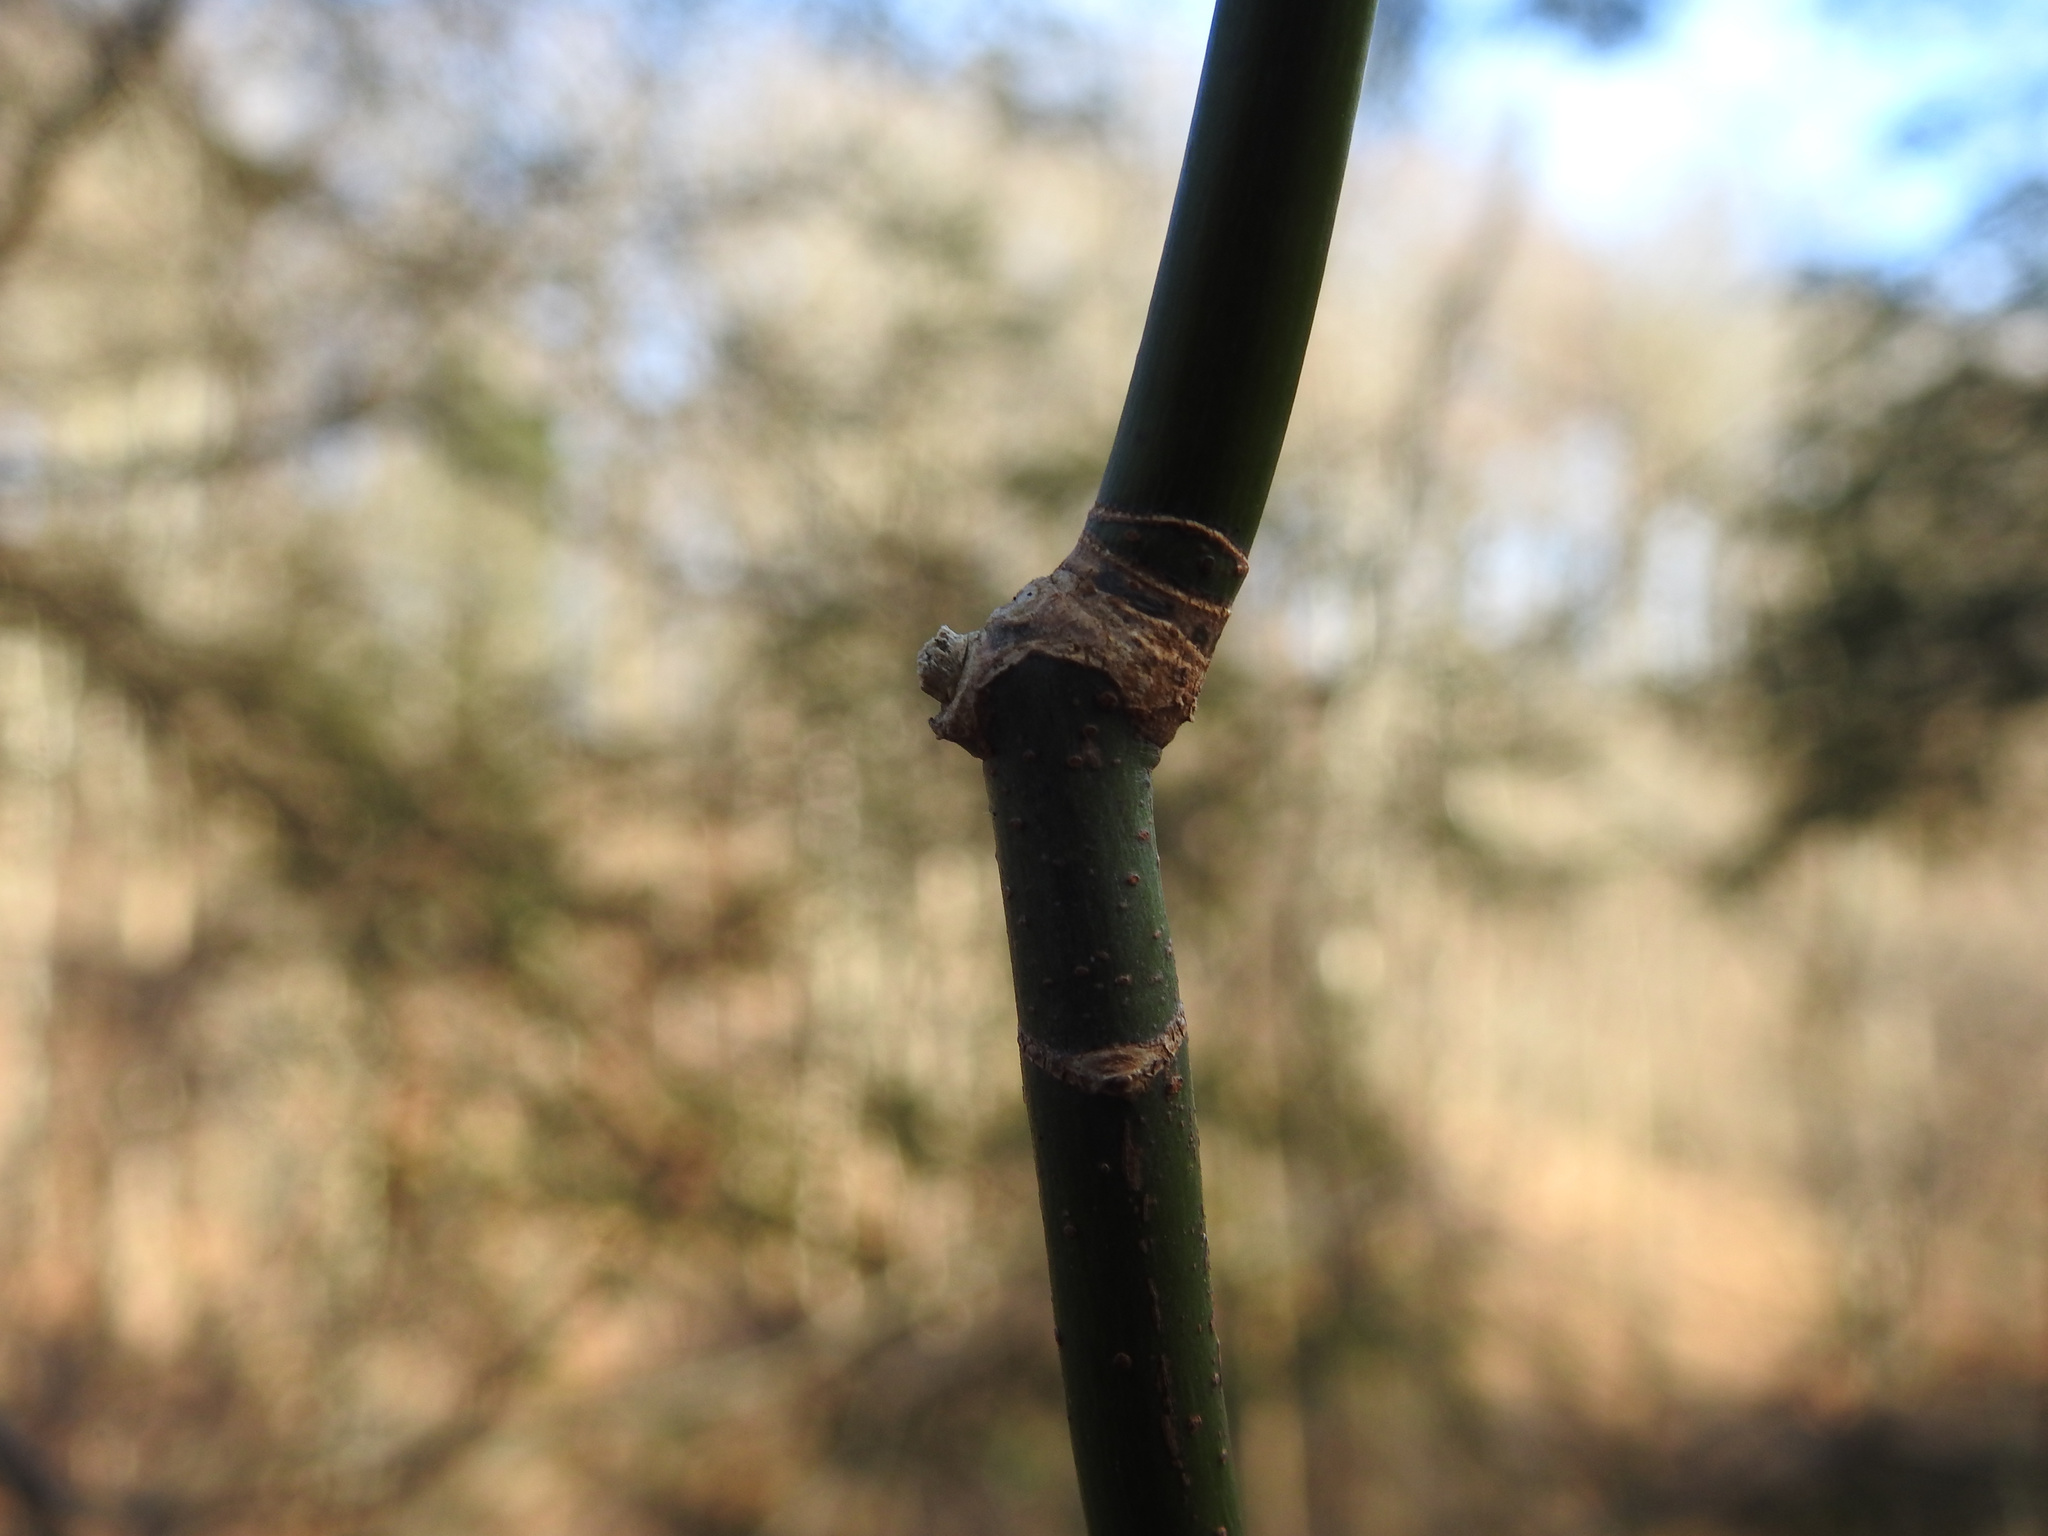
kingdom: Plantae
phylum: Tracheophyta
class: Magnoliopsida
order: Sapindales
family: Sapindaceae
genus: Acer
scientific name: Acer negundo
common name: Ashleaf maple
